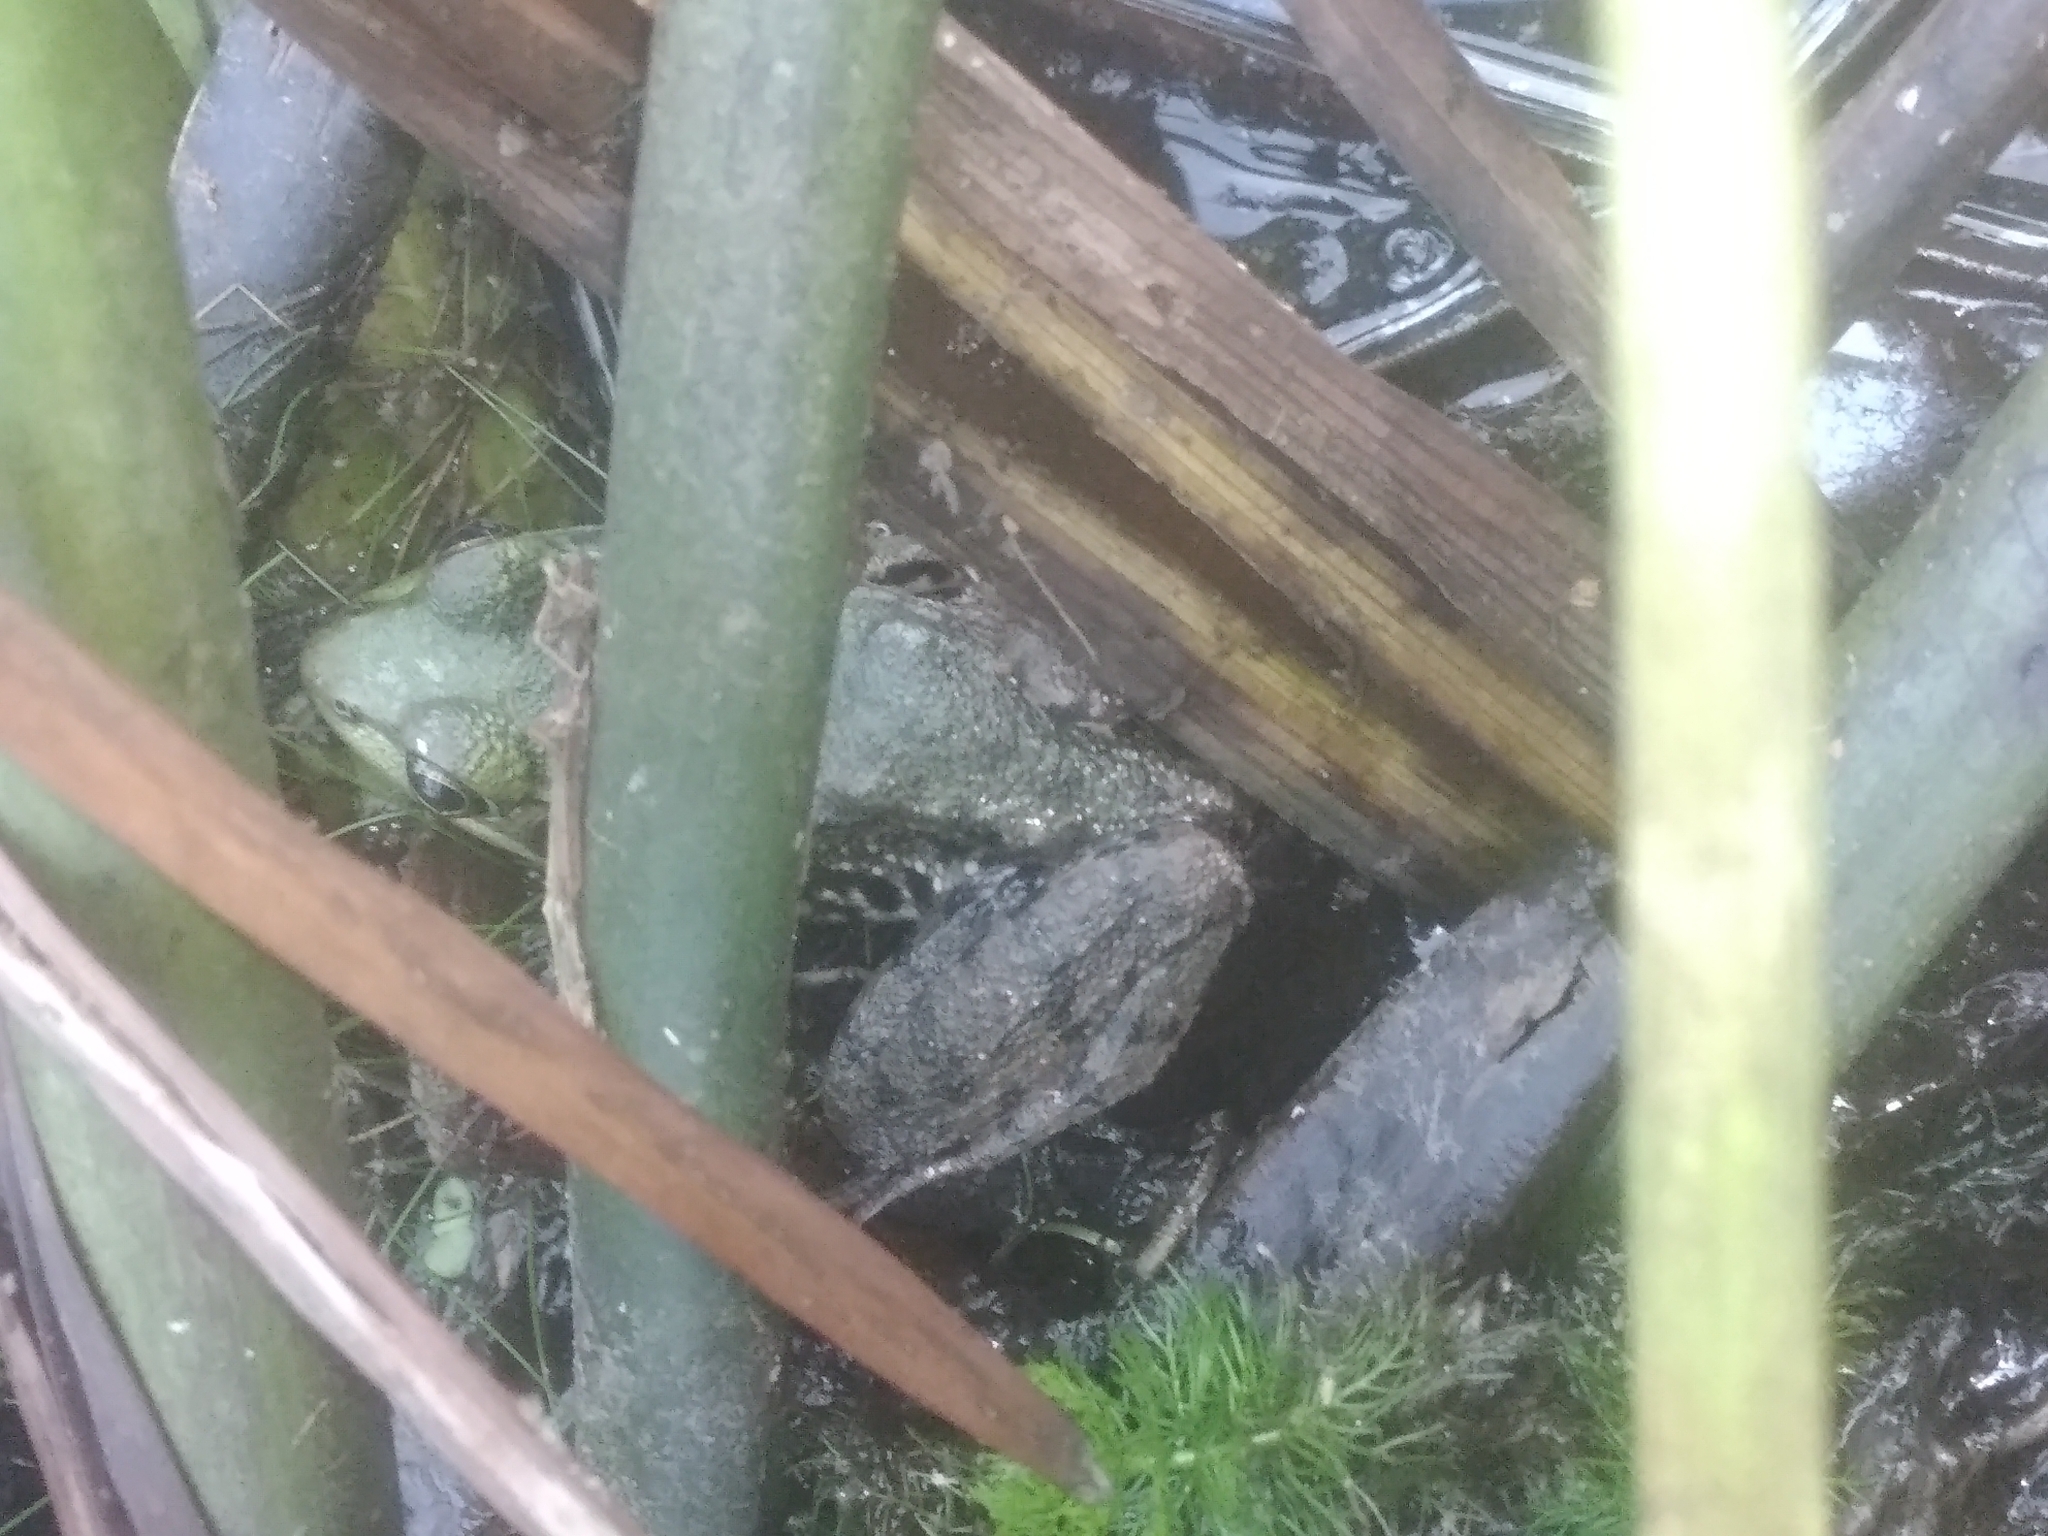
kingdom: Animalia
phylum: Chordata
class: Amphibia
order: Anura
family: Ranidae
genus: Lithobates
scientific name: Lithobates clamitans
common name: Green frog
